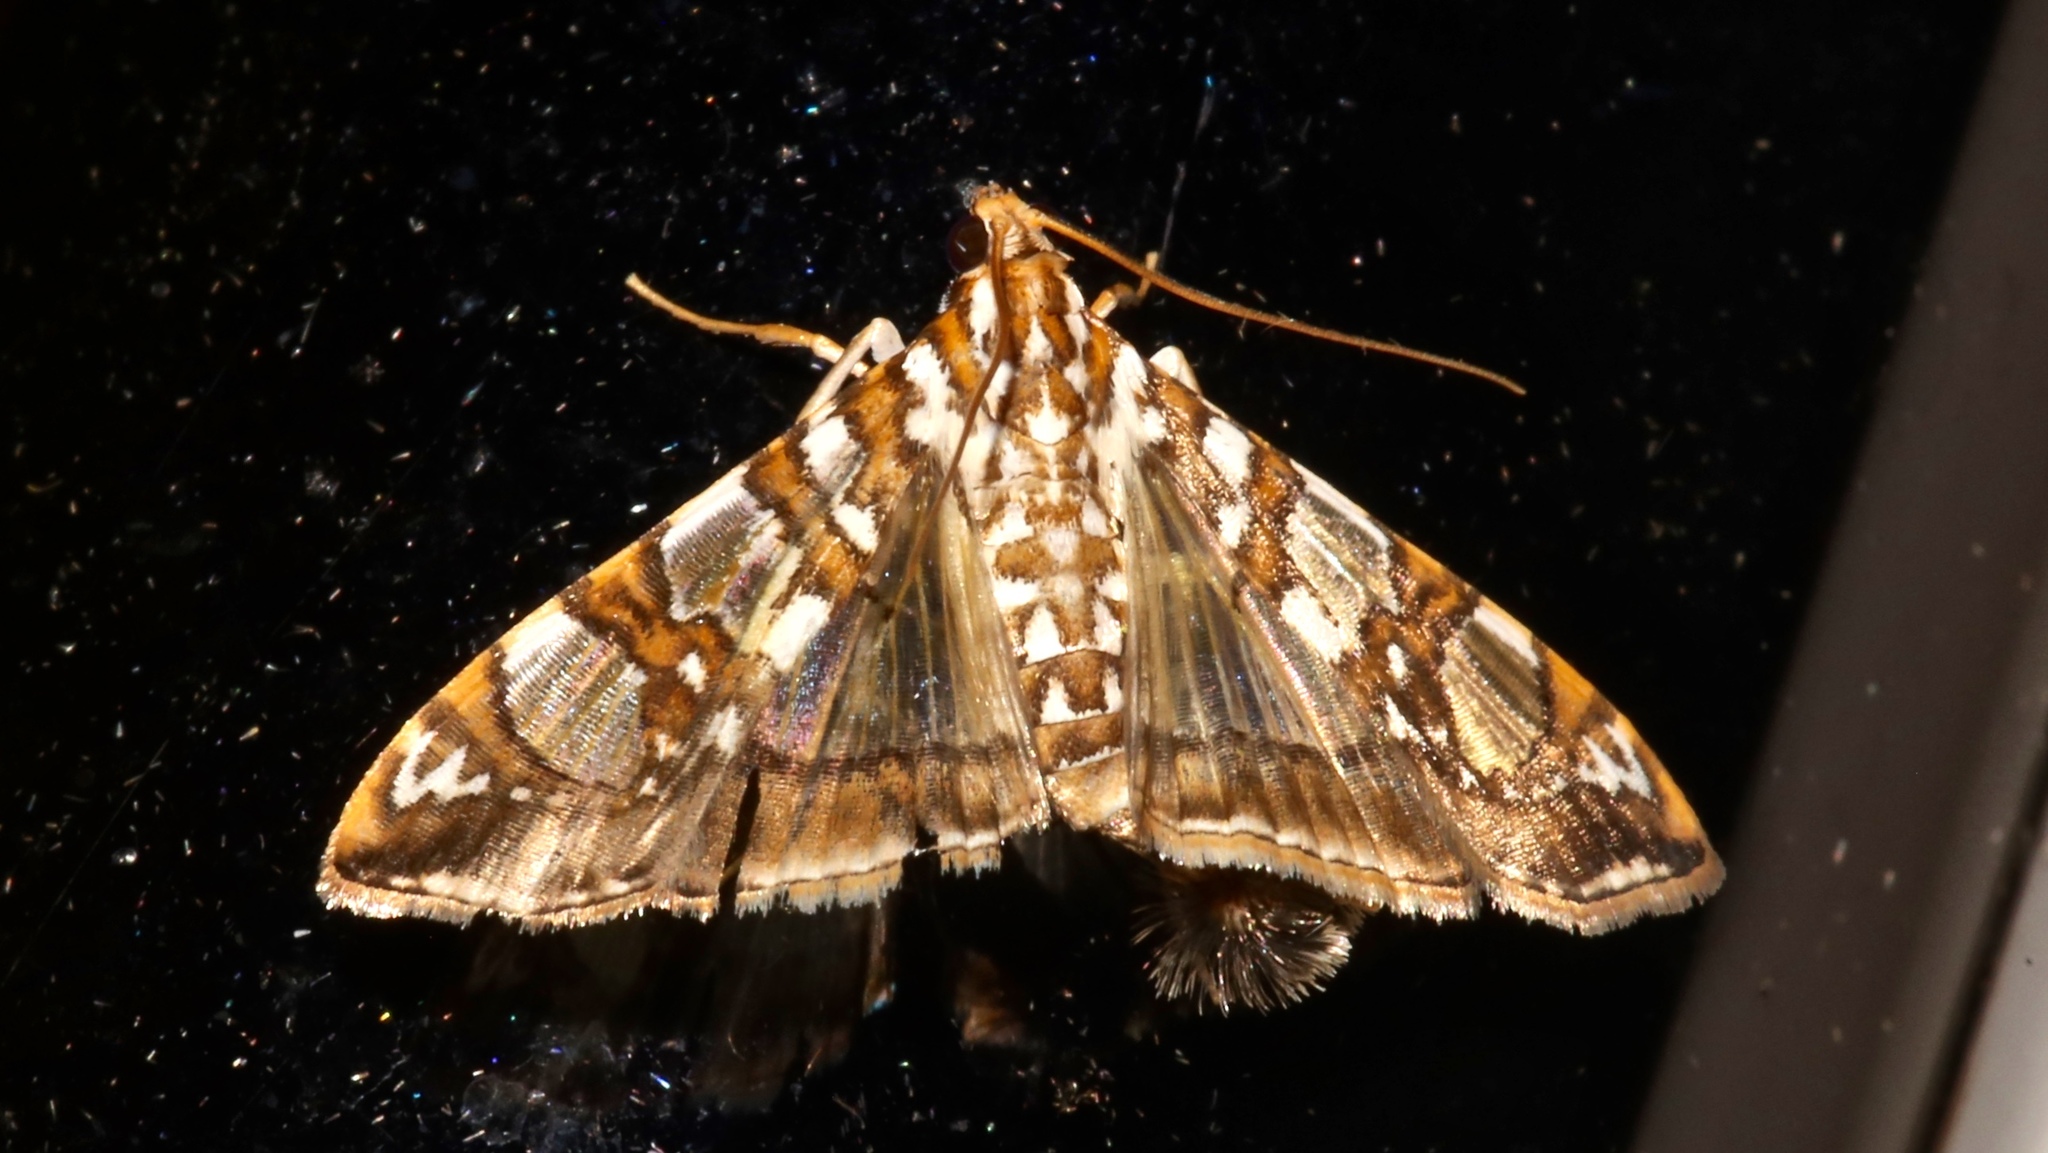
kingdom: Animalia
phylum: Arthropoda
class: Insecta
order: Lepidoptera
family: Crambidae
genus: Glyphodes
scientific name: Glyphodes sibillalis
